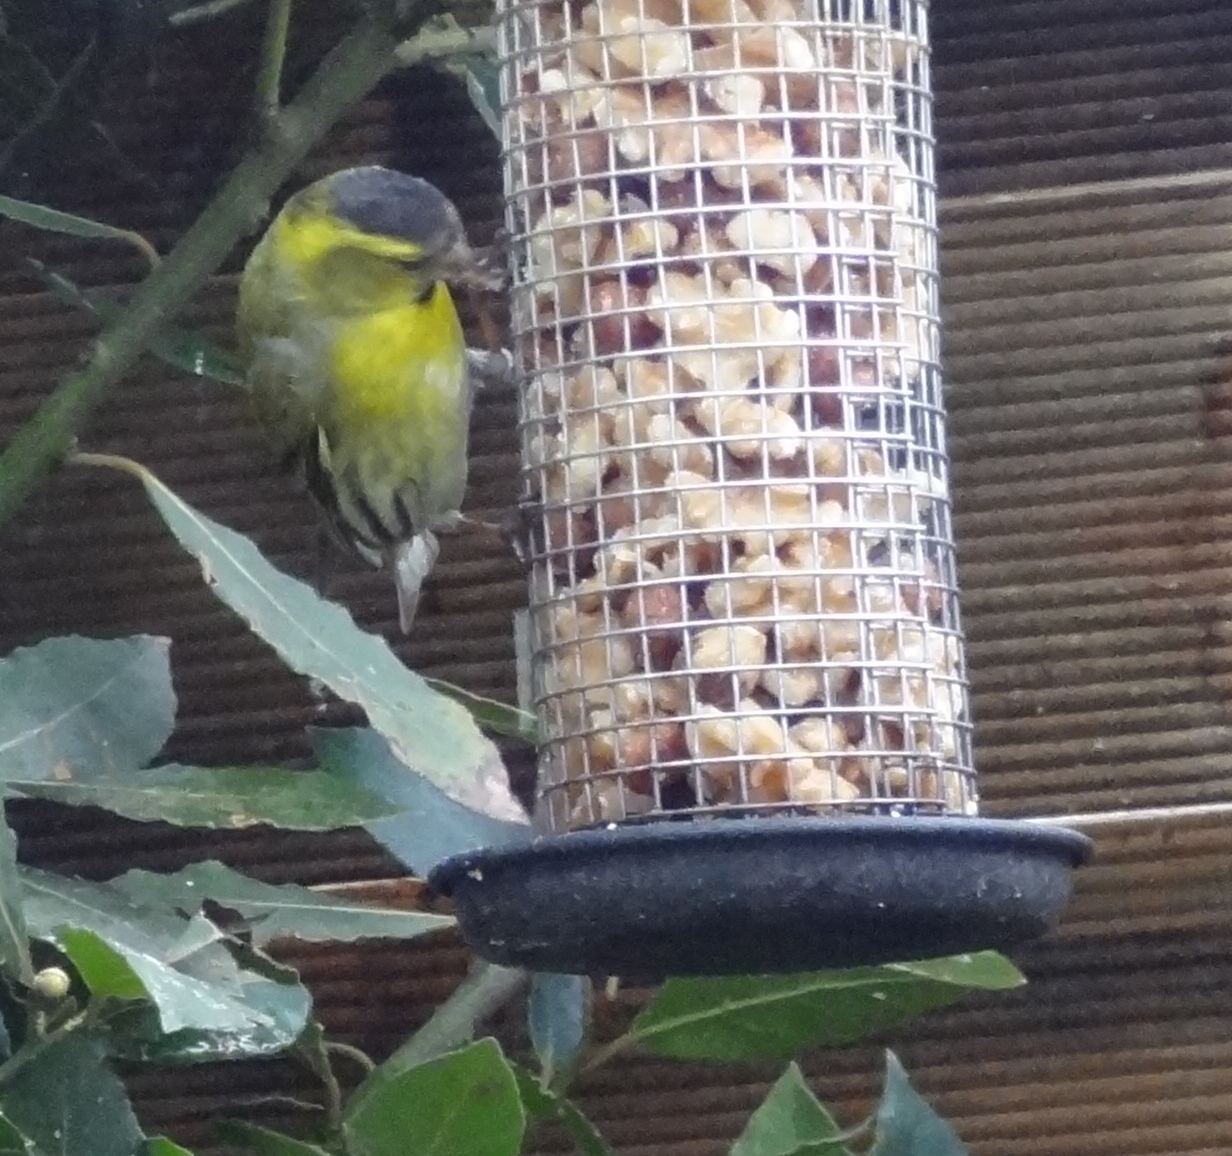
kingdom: Animalia
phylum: Chordata
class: Aves
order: Passeriformes
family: Fringillidae
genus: Spinus
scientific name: Spinus spinus
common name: Eurasian siskin
